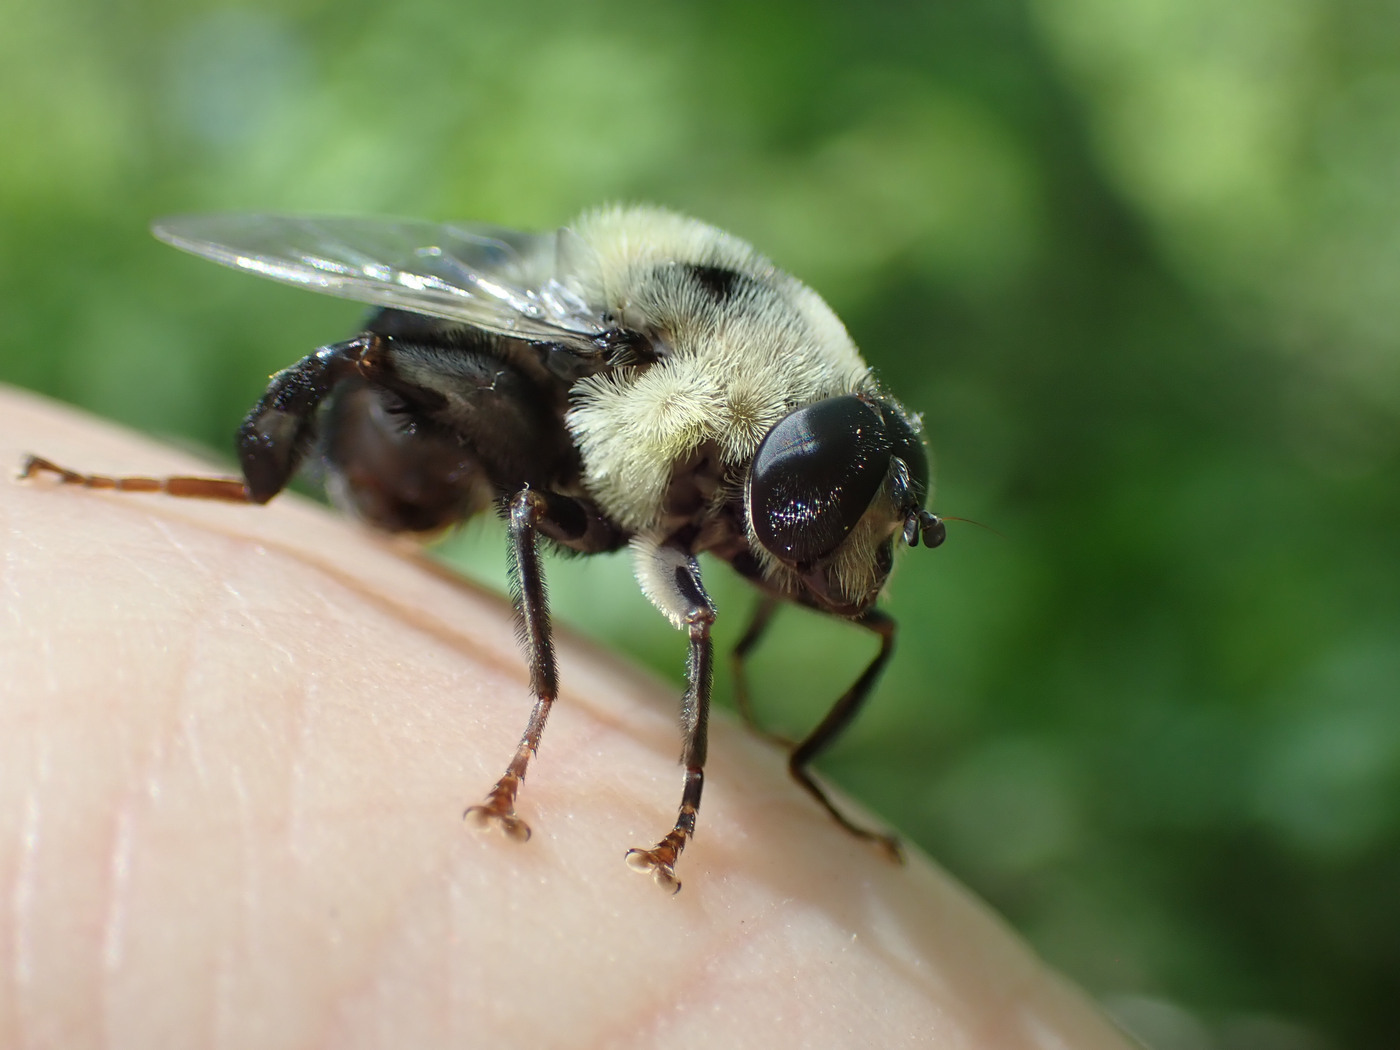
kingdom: Animalia
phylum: Arthropoda
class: Insecta
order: Diptera
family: Syrphidae
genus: Imatisma
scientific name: Imatisma posticata
